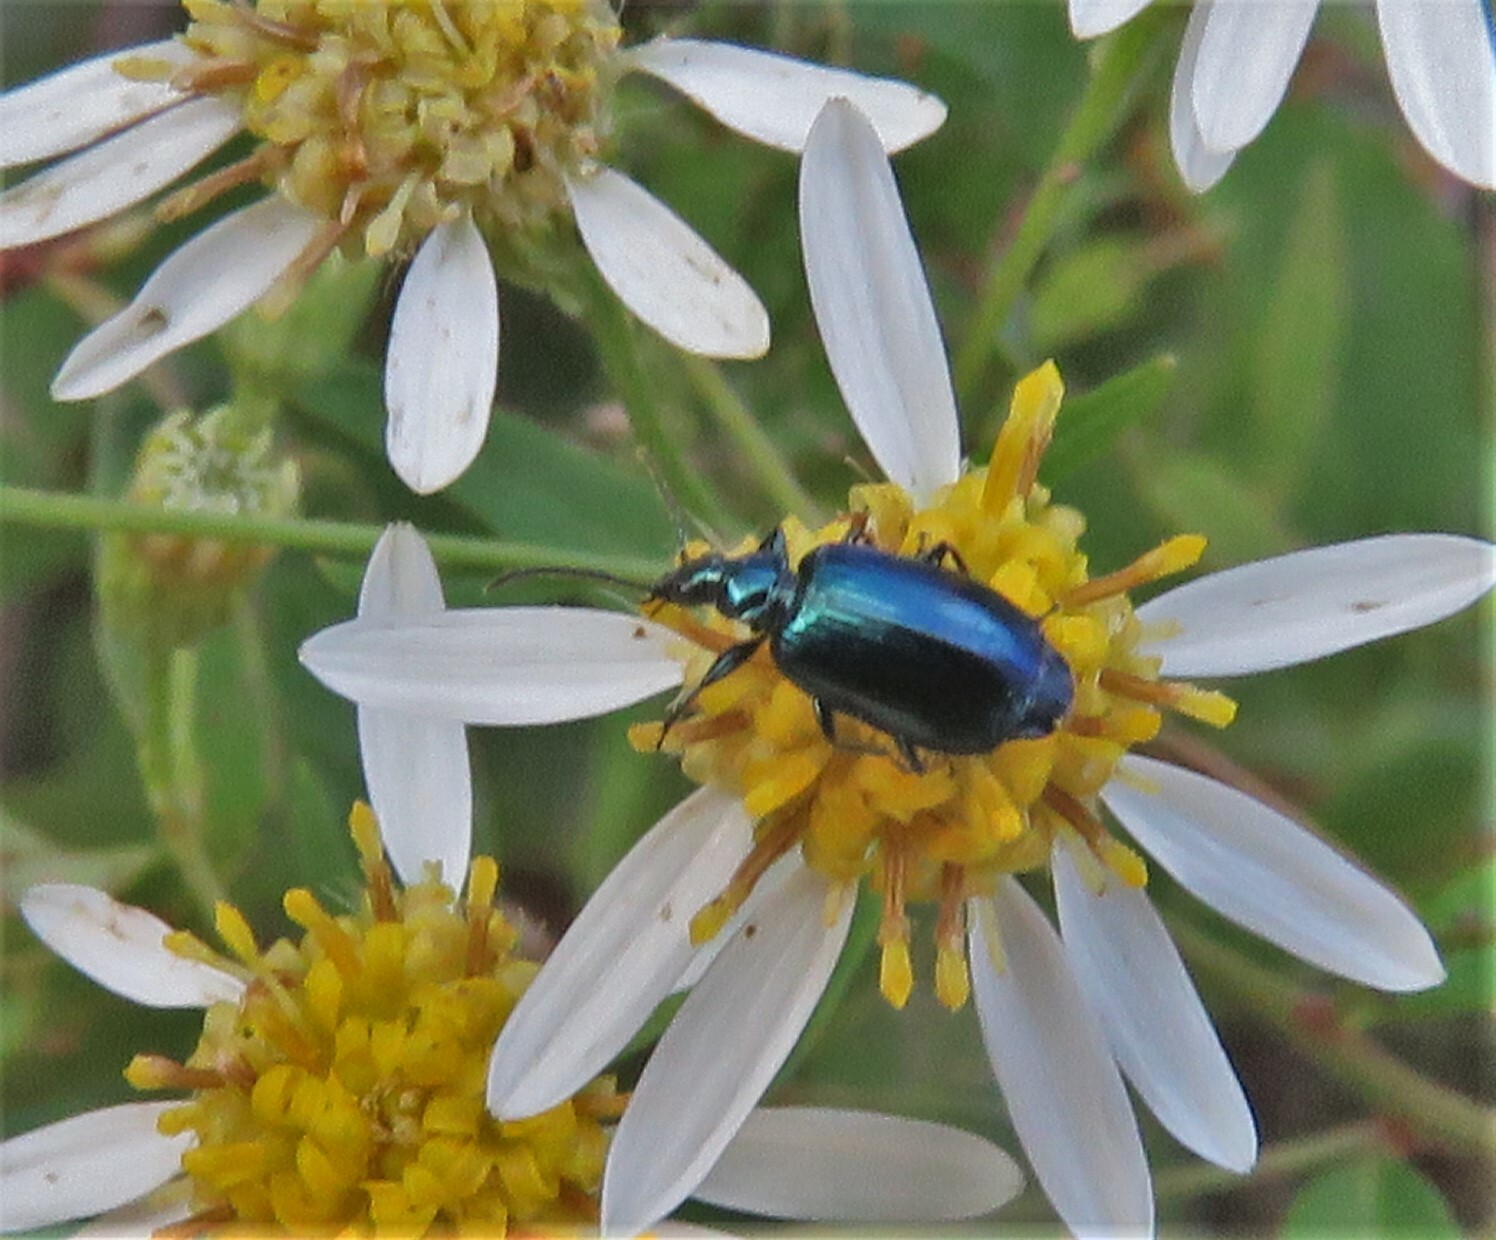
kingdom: Animalia
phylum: Arthropoda
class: Insecta
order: Coleoptera
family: Carabidae
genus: Lebia
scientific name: Lebia viridis
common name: Flower lebia beetle
